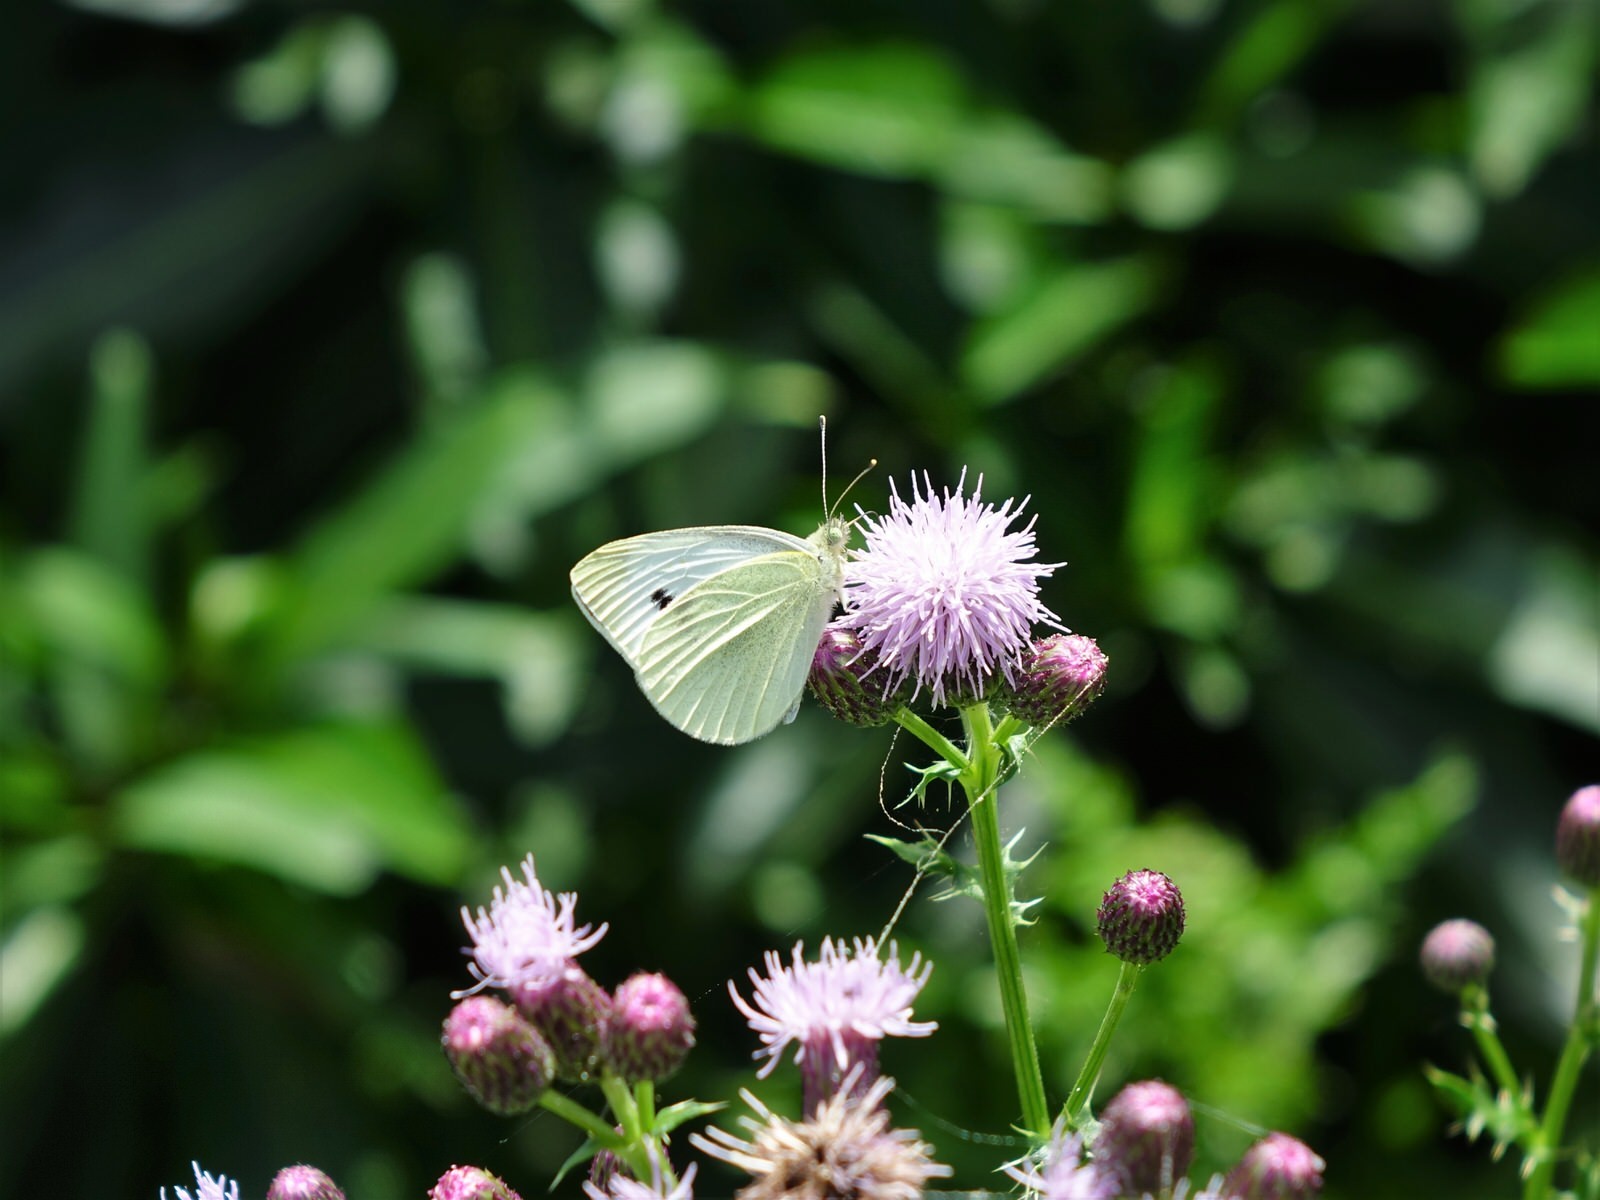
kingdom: Animalia
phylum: Arthropoda
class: Insecta
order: Lepidoptera
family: Pieridae
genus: Pieris
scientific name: Pieris rapae
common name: Small white
